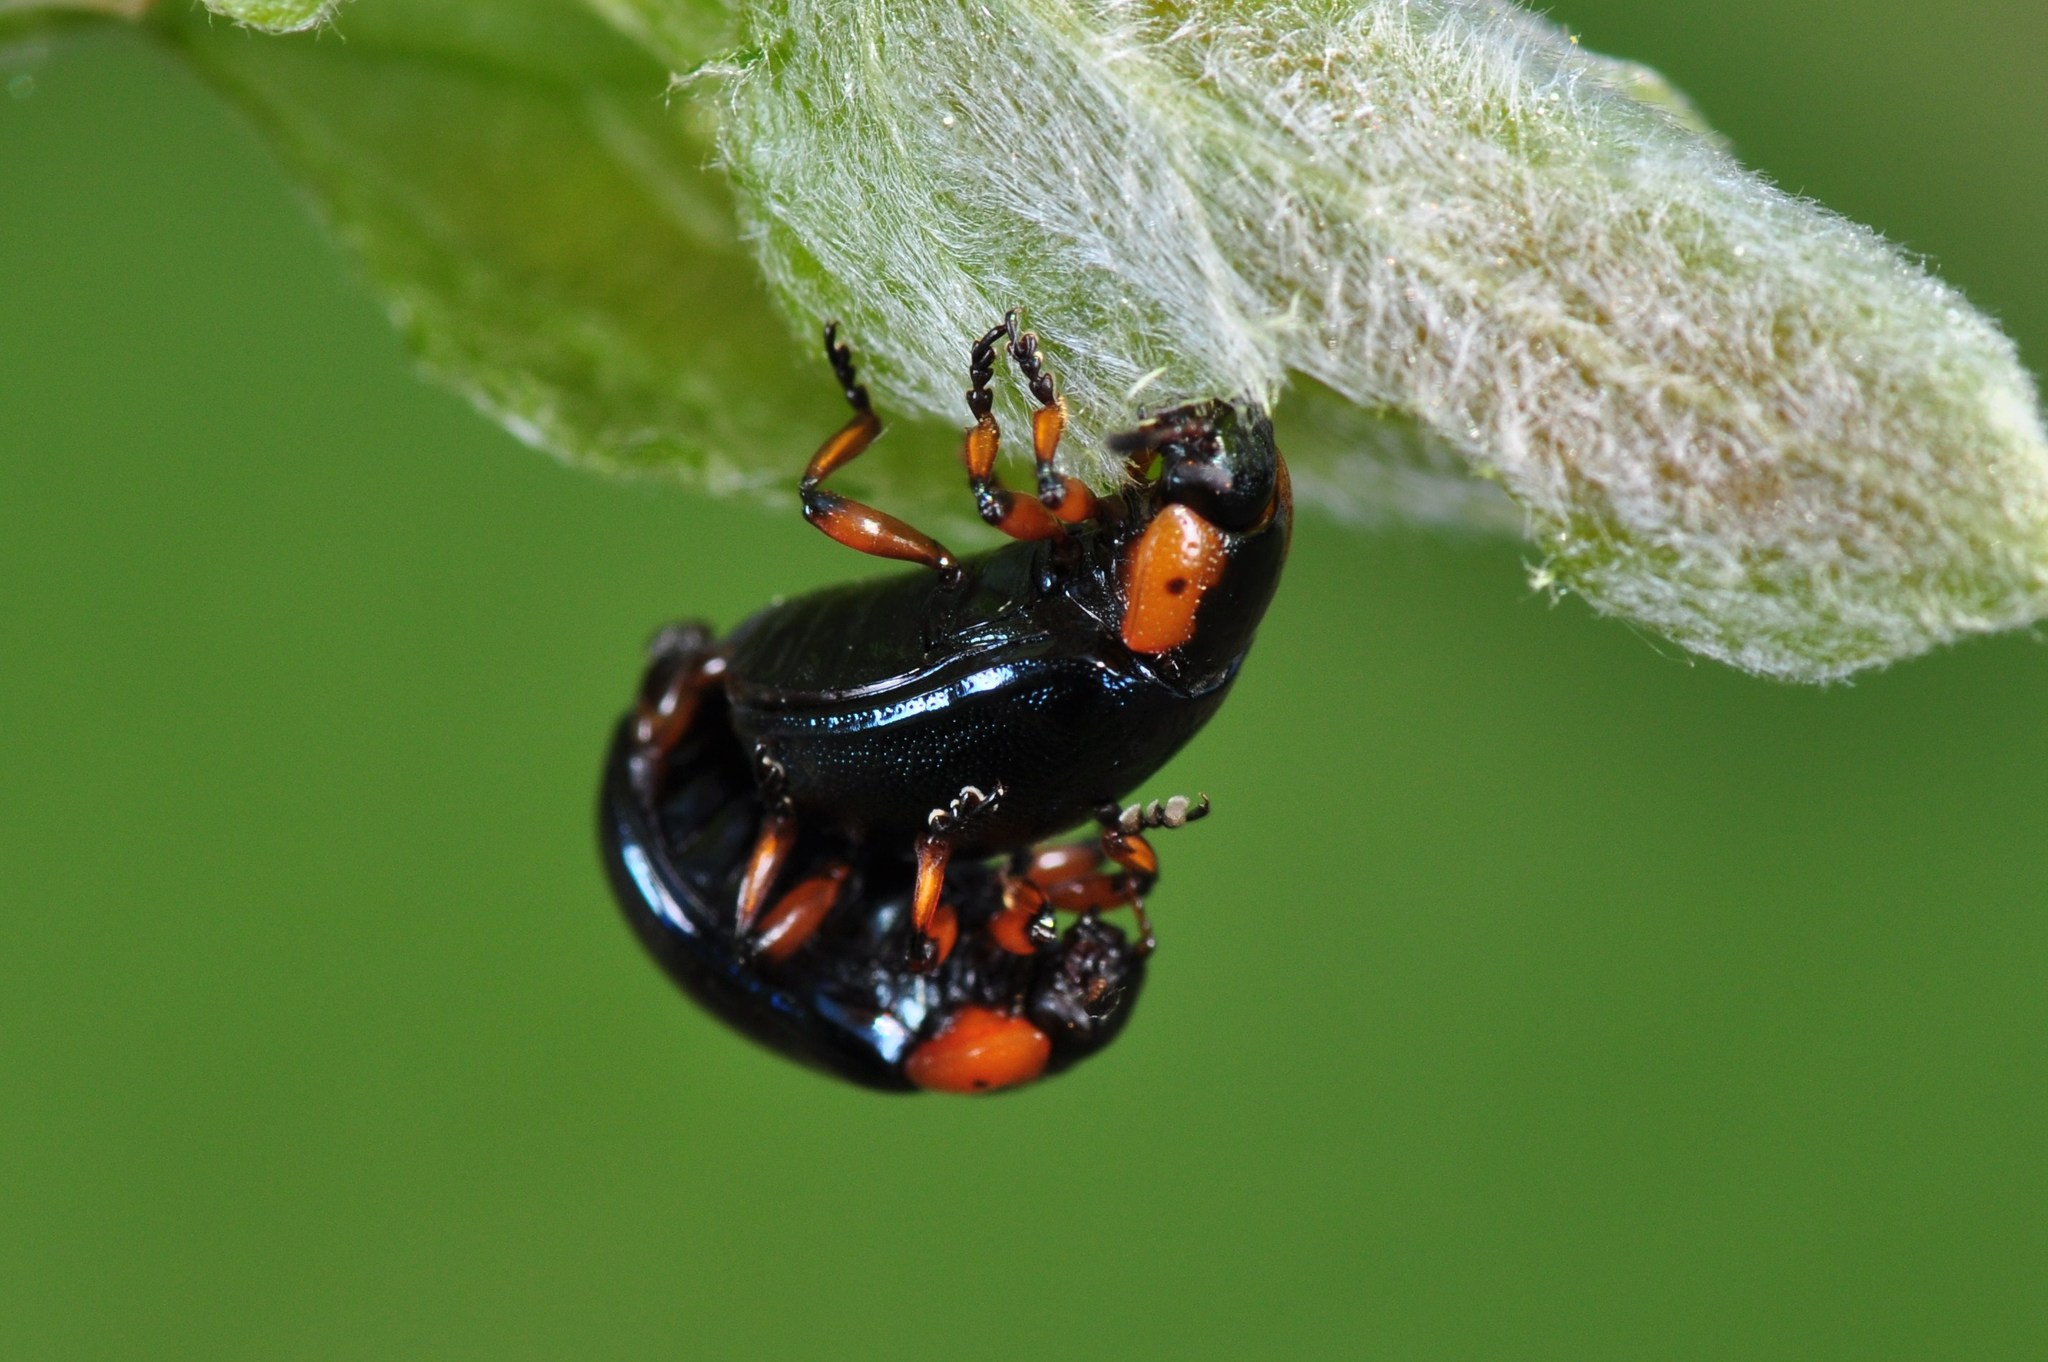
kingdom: Animalia
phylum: Arthropoda
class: Insecta
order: Coleoptera
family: Chrysomelidae
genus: Chrysomela
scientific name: Chrysomela collaris
